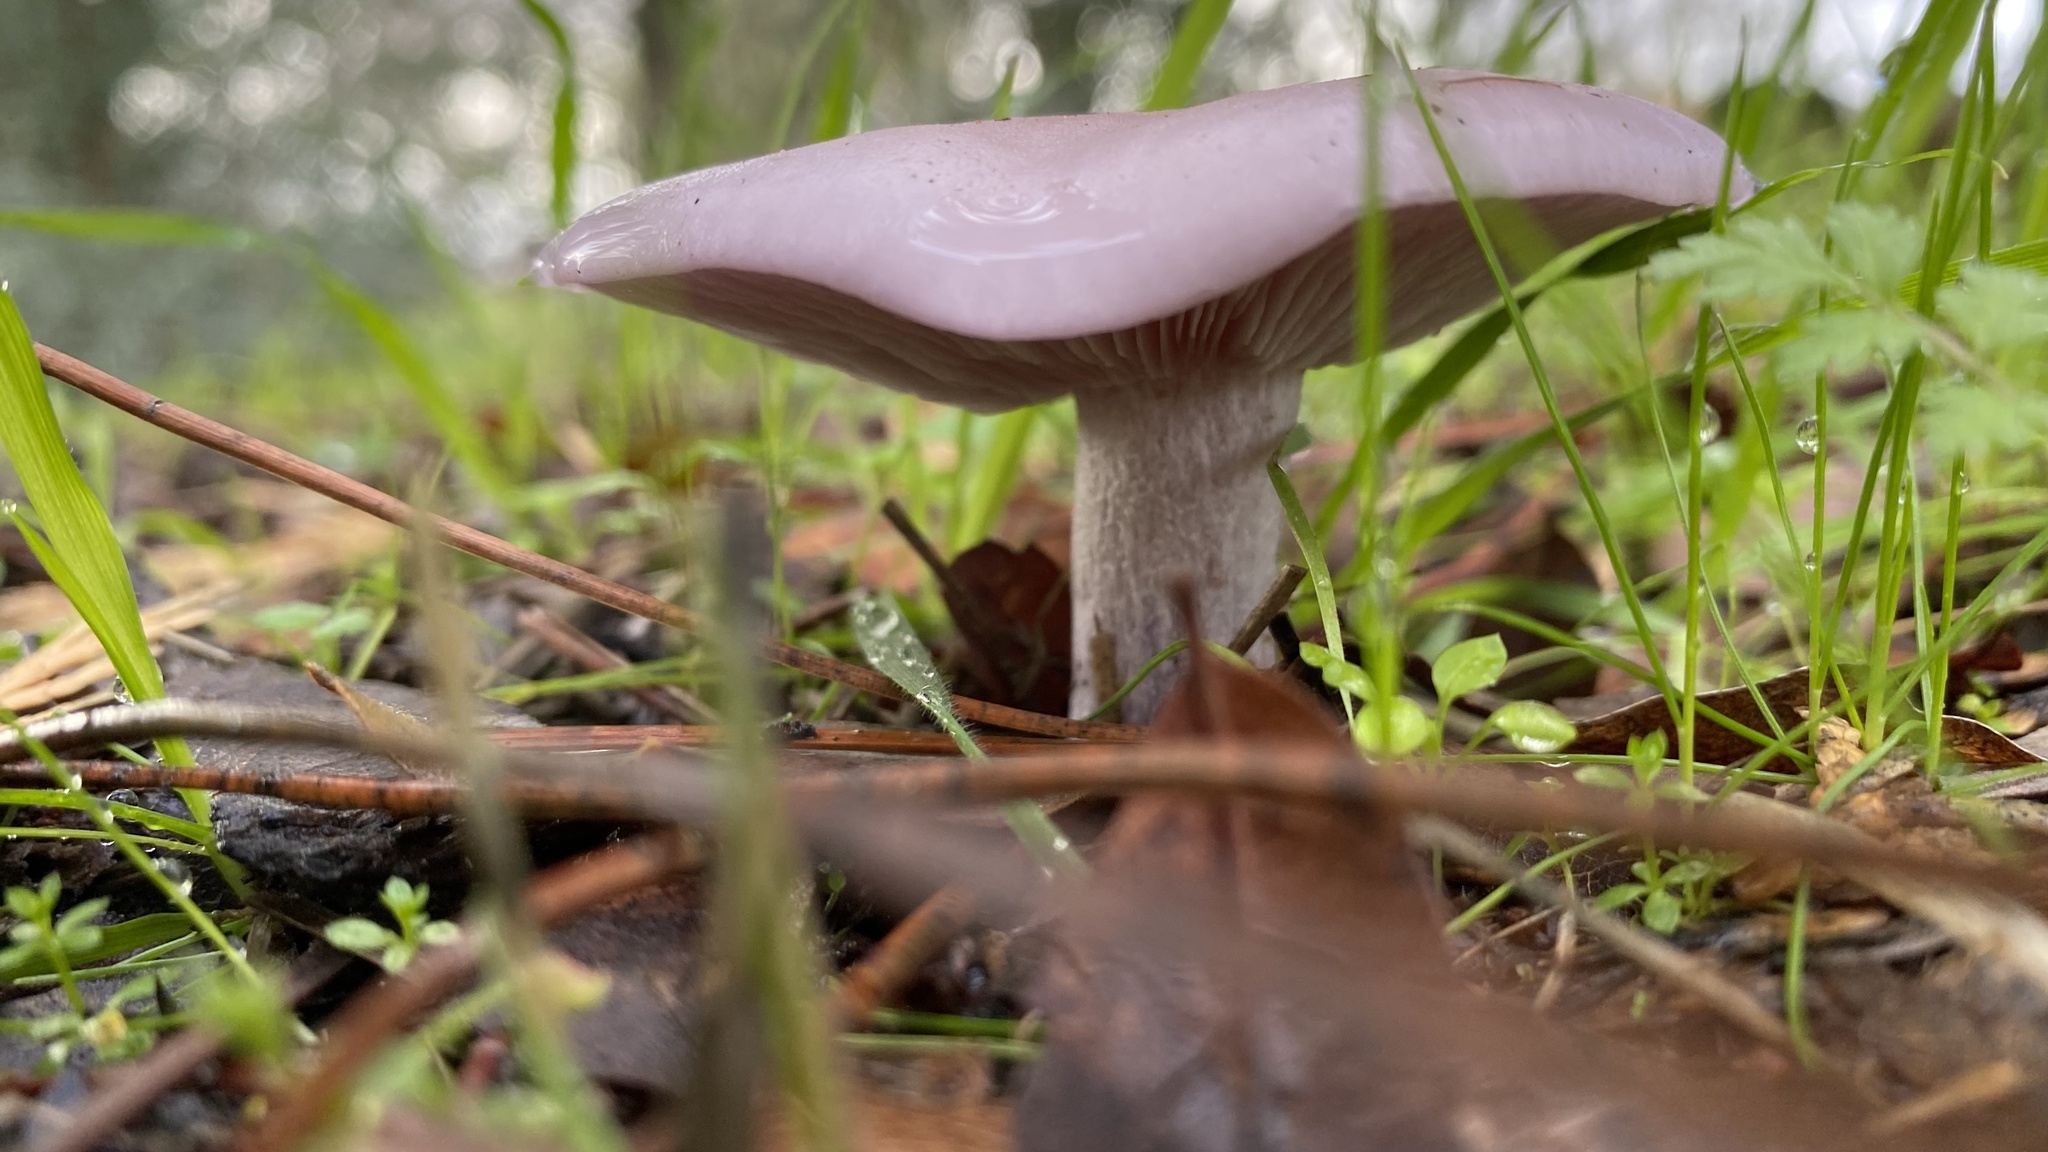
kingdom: Fungi
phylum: Basidiomycota
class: Agaricomycetes
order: Agaricales
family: Tricholomataceae
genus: Collybia
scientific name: Collybia
